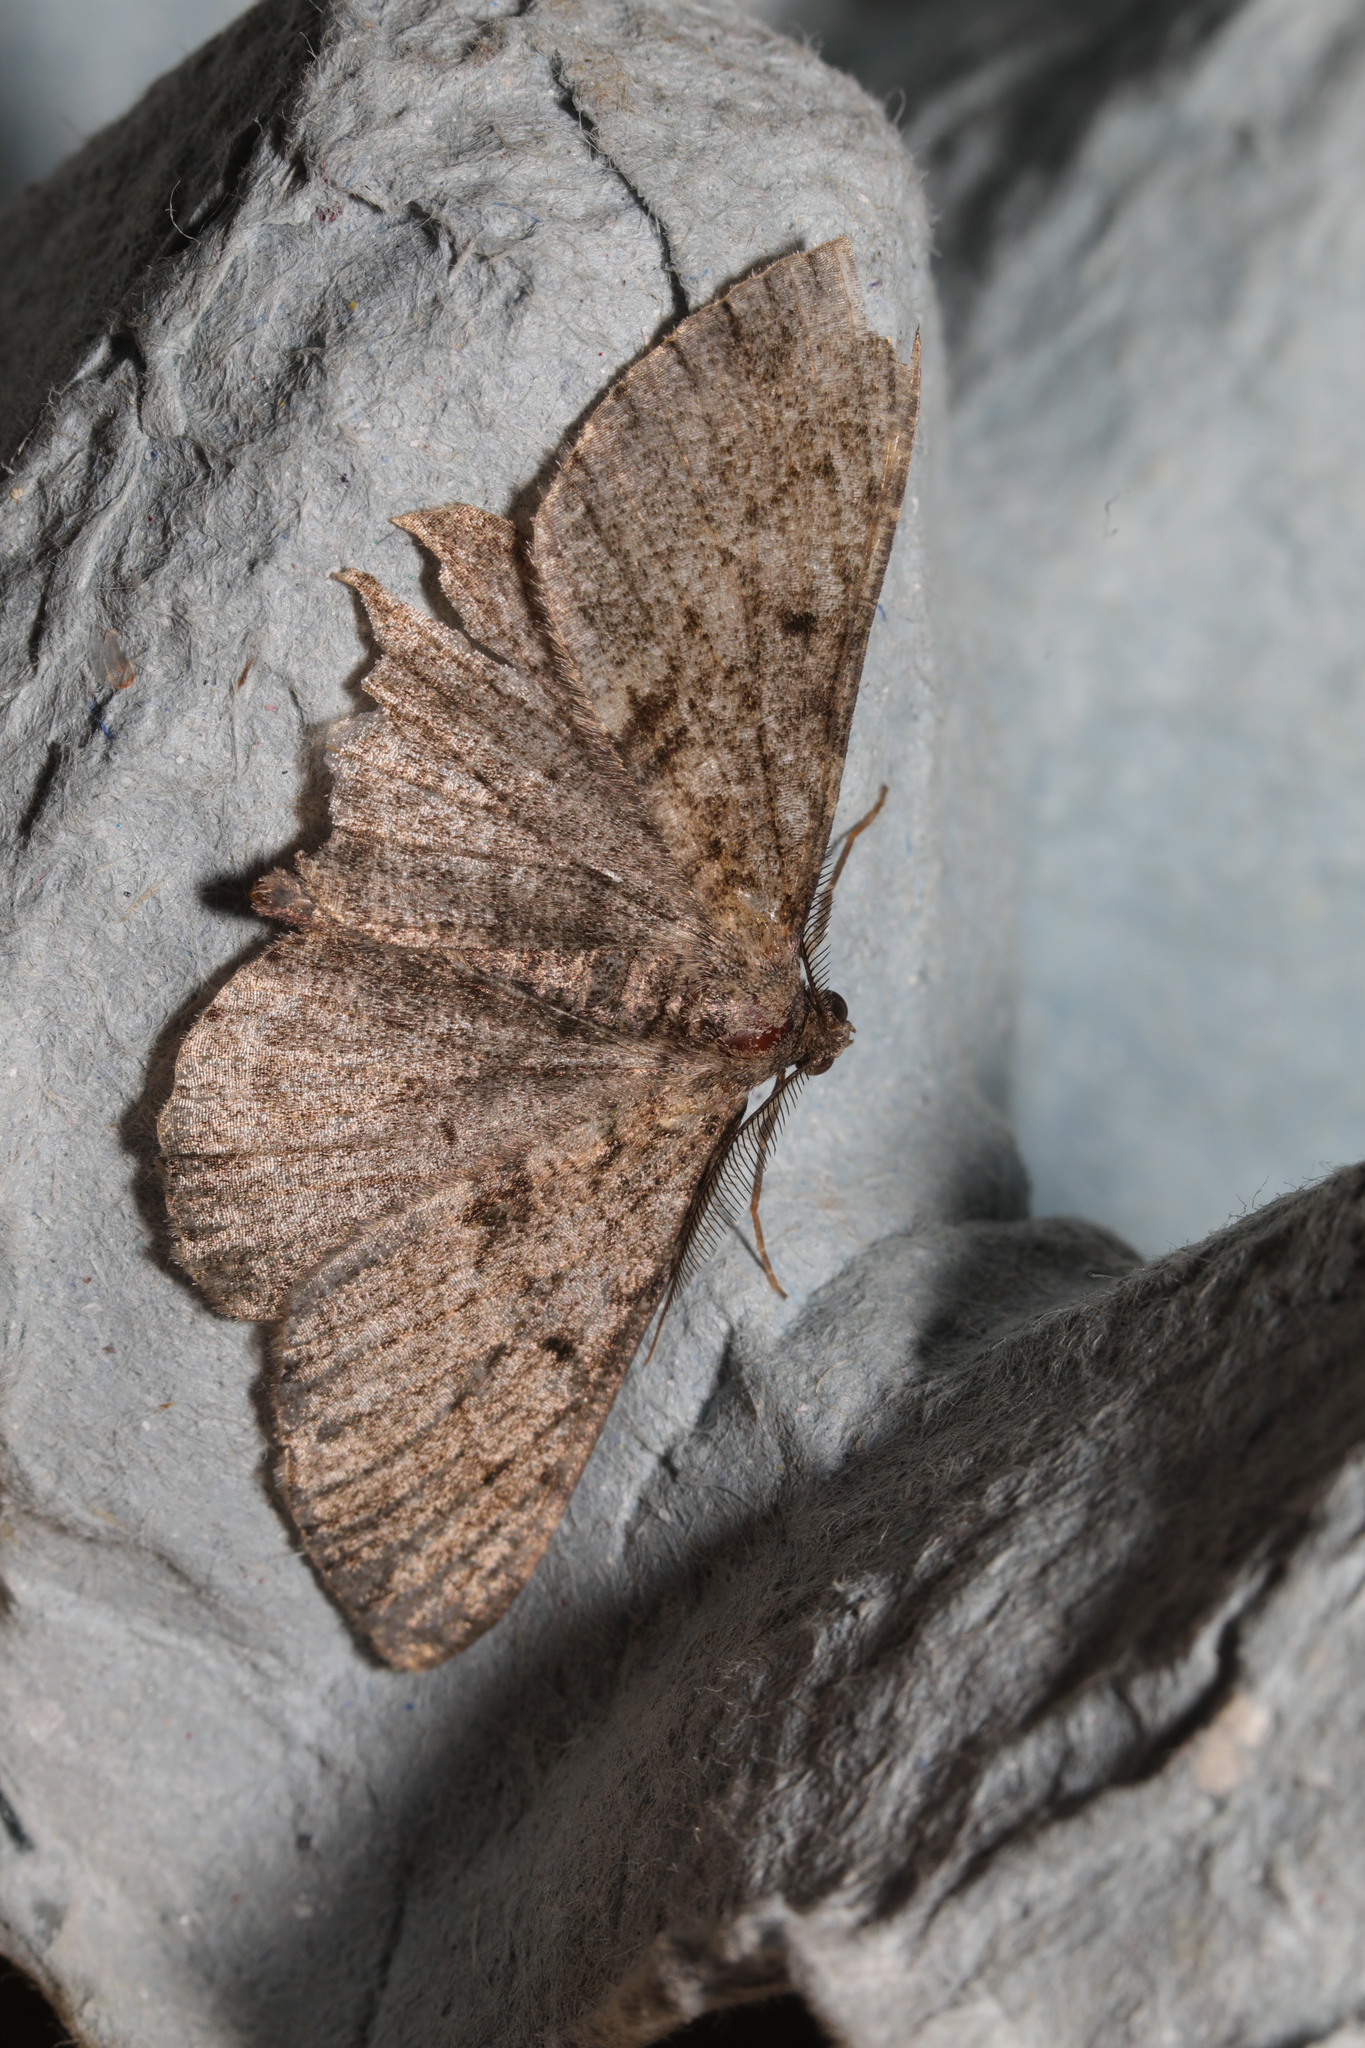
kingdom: Animalia
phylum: Arthropoda
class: Insecta
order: Lepidoptera
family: Geometridae
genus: Peribatodes
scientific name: Peribatodes rhomboidaria
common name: Willow beauty
